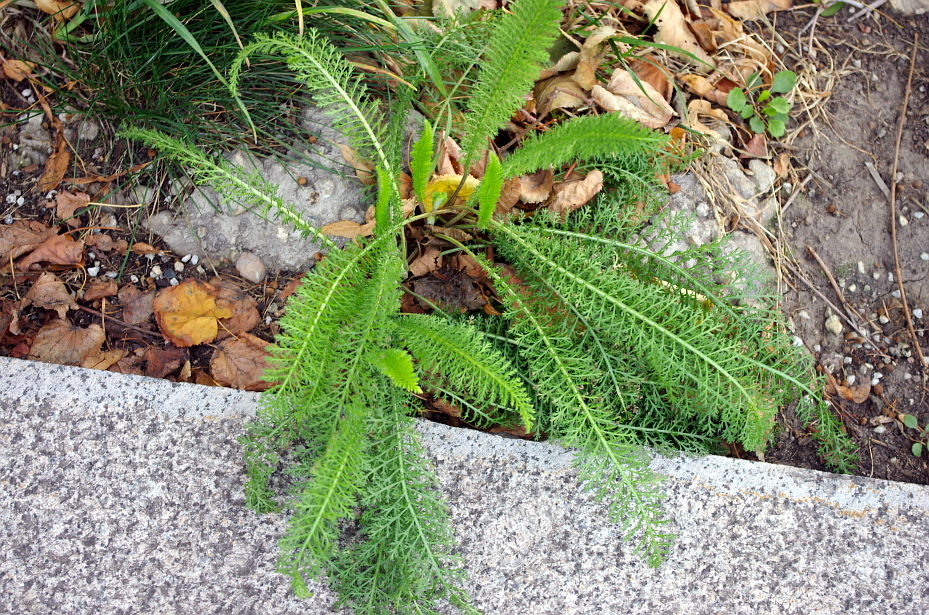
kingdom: Plantae
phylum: Tracheophyta
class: Magnoliopsida
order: Asterales
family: Asteraceae
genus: Achillea
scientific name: Achillea millefolium
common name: Yarrow
